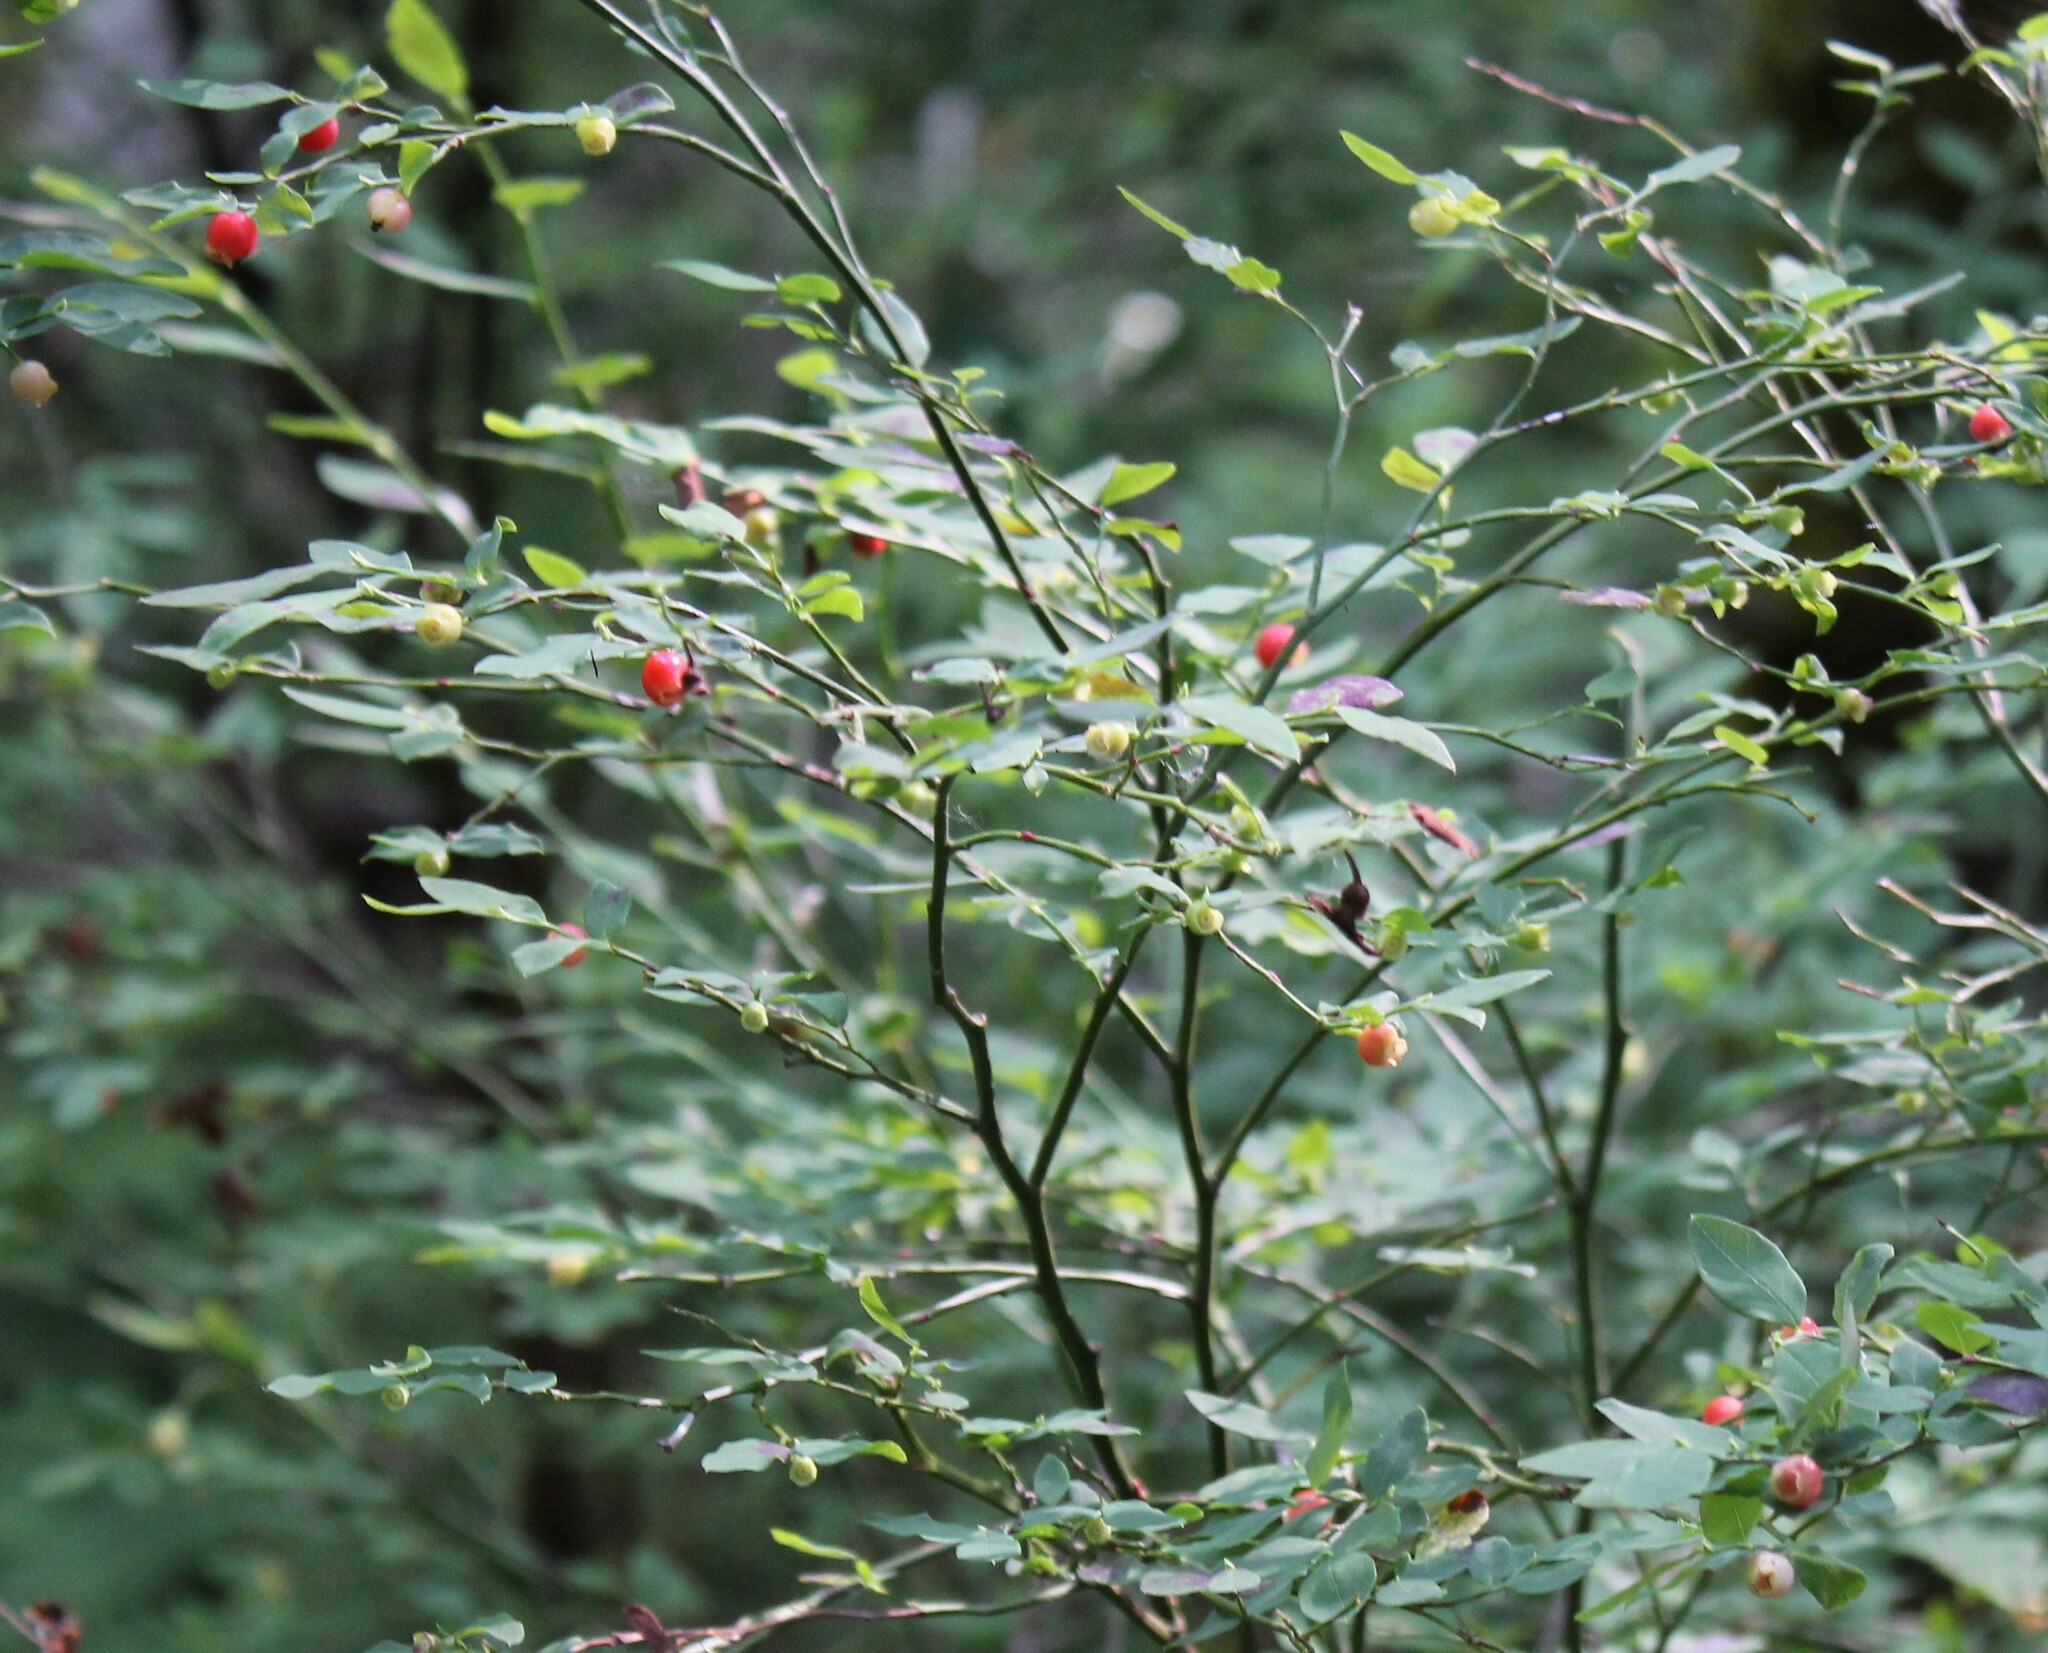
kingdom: Plantae
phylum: Tracheophyta
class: Magnoliopsida
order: Ericales
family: Ericaceae
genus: Vaccinium
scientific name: Vaccinium parvifolium
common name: Red-huckleberry
